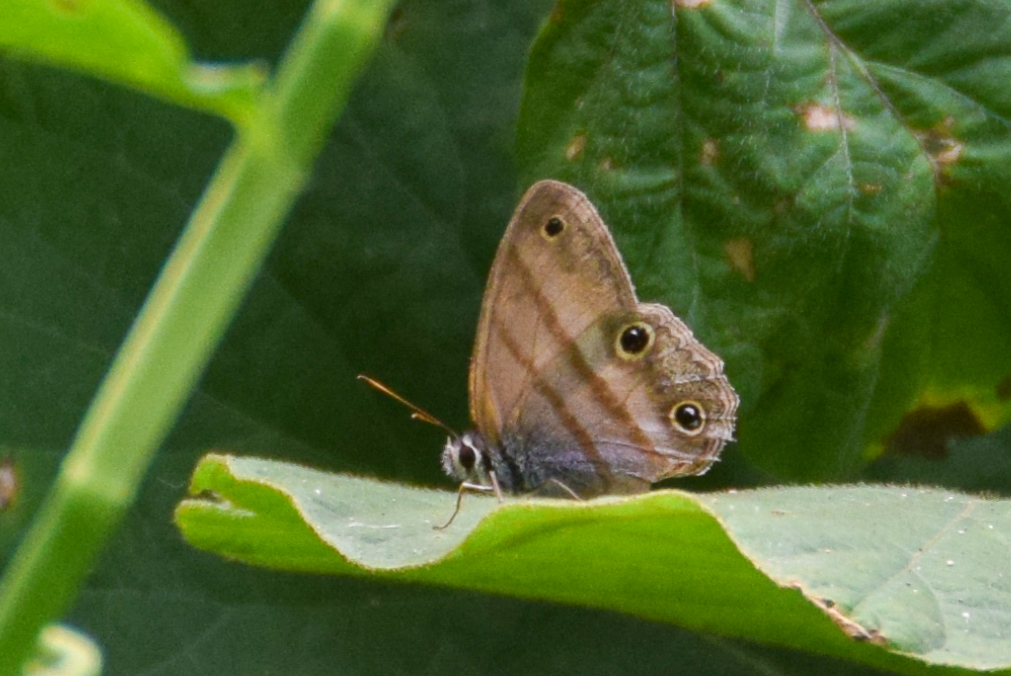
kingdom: Animalia
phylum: Arthropoda
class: Insecta
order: Lepidoptera
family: Nymphalidae
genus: Argyreuptychia
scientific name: Argyreuptychia penelope
